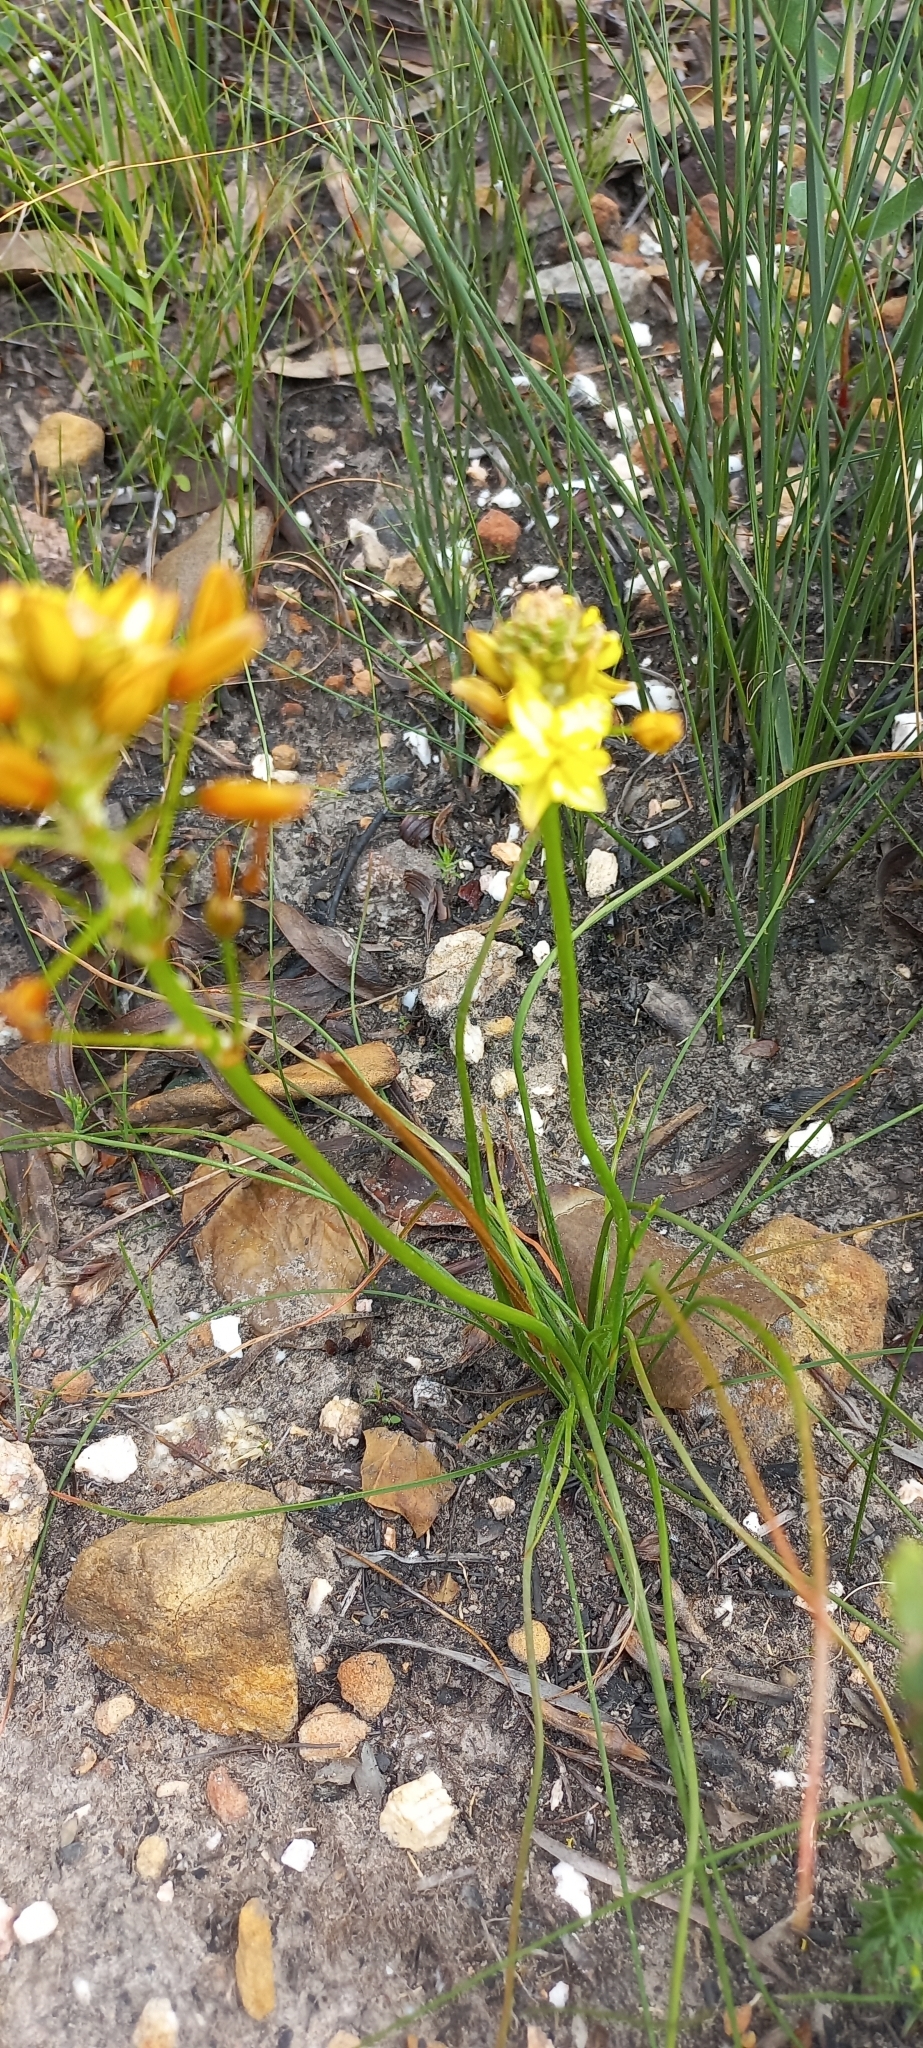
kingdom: Plantae
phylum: Tracheophyta
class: Liliopsida
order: Asparagales
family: Asphodelaceae
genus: Bulbine
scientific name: Bulbine annua
